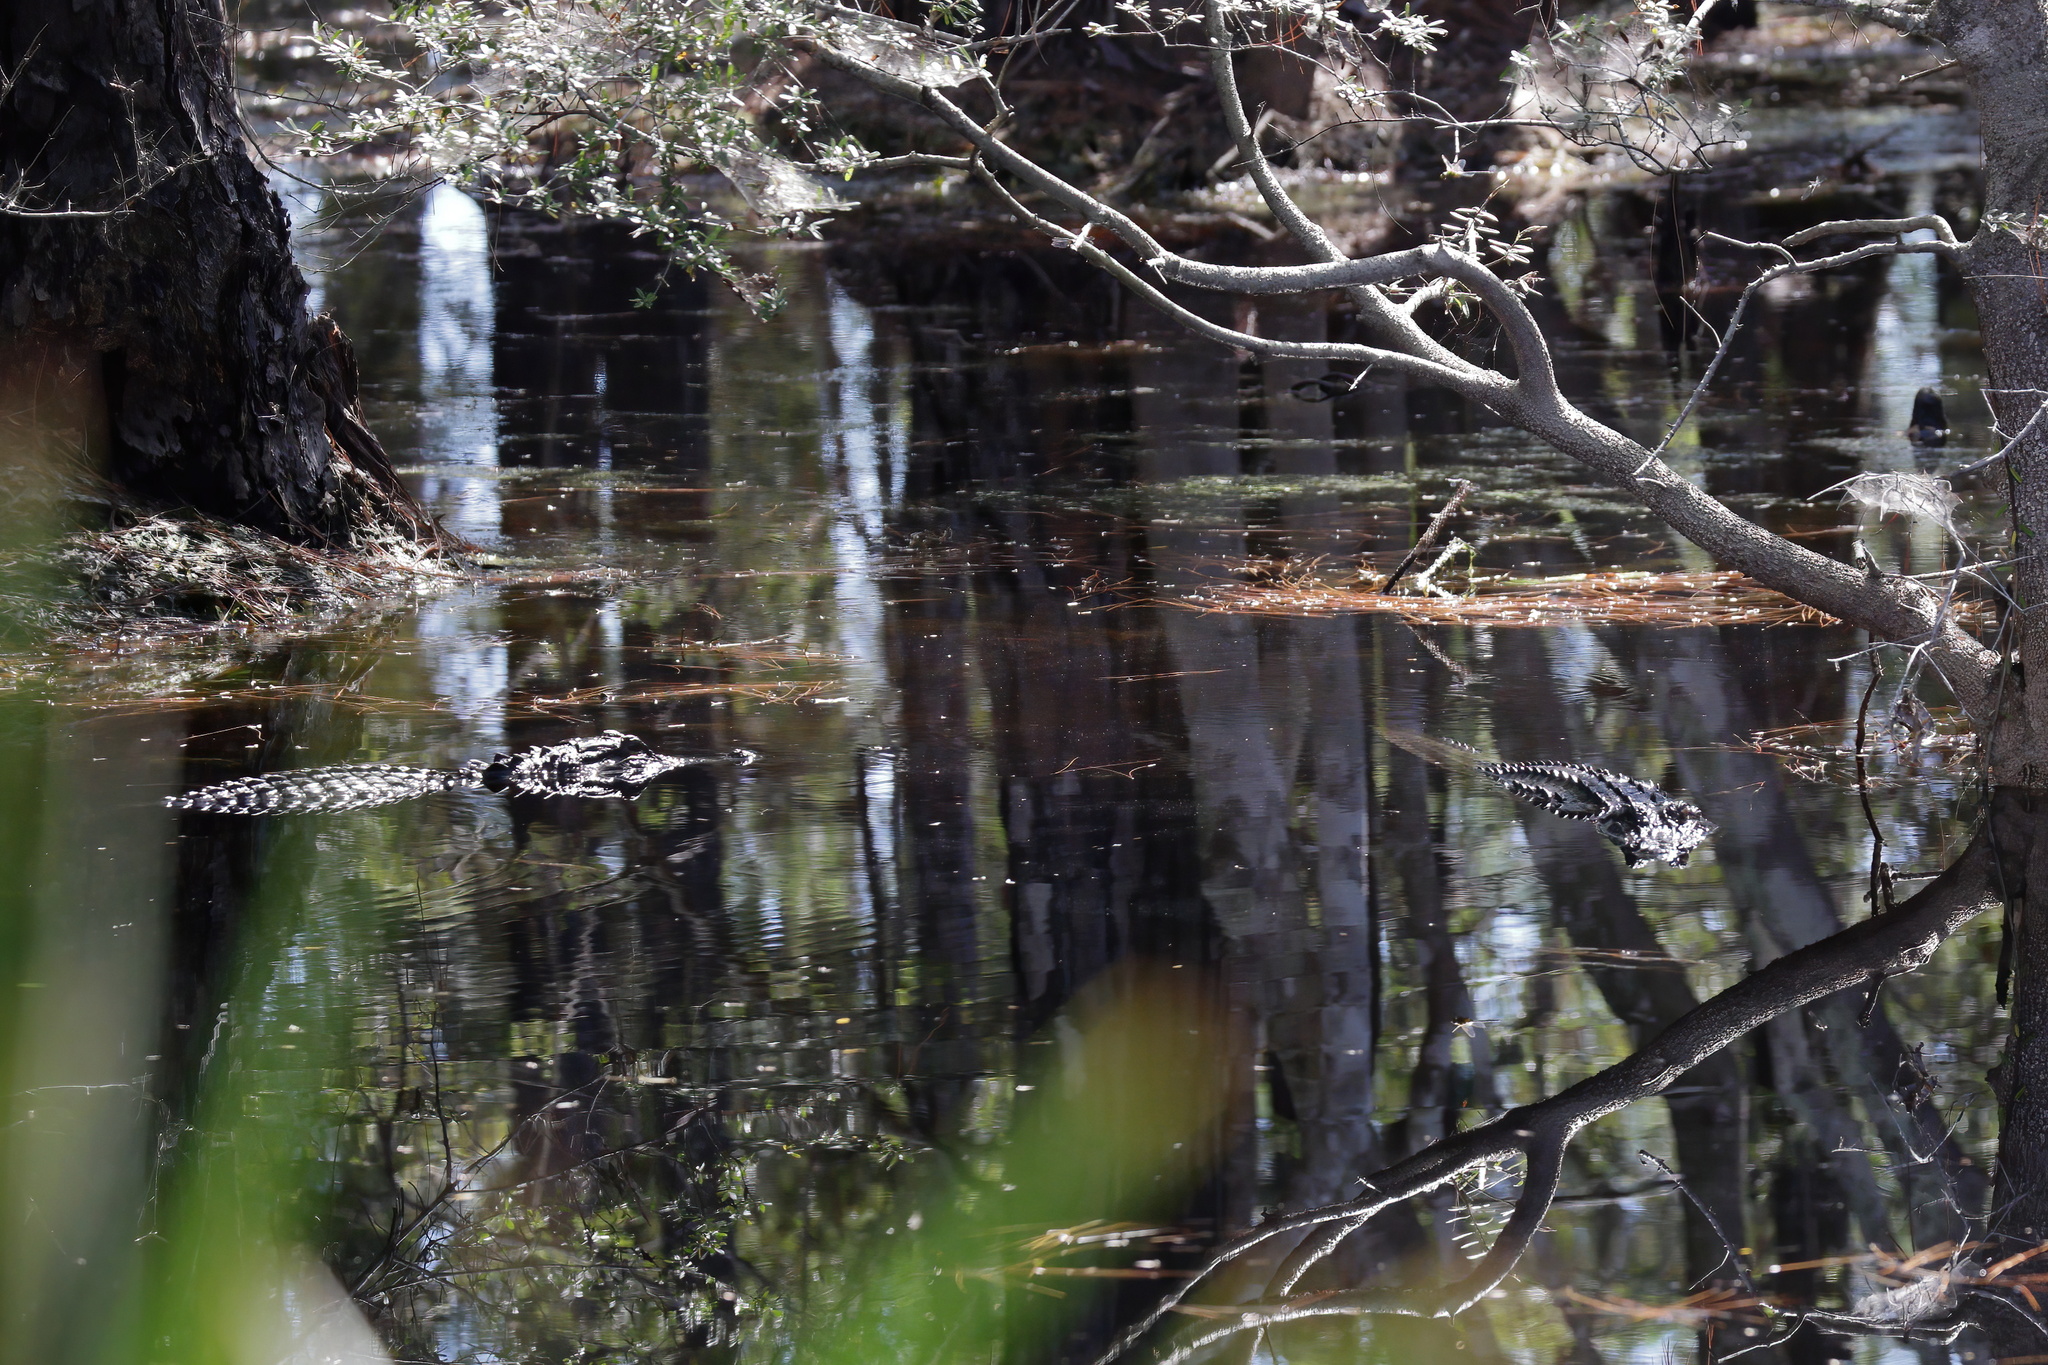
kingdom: Animalia
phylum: Chordata
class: Crocodylia
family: Alligatoridae
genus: Alligator
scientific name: Alligator mississippiensis
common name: American alligator
